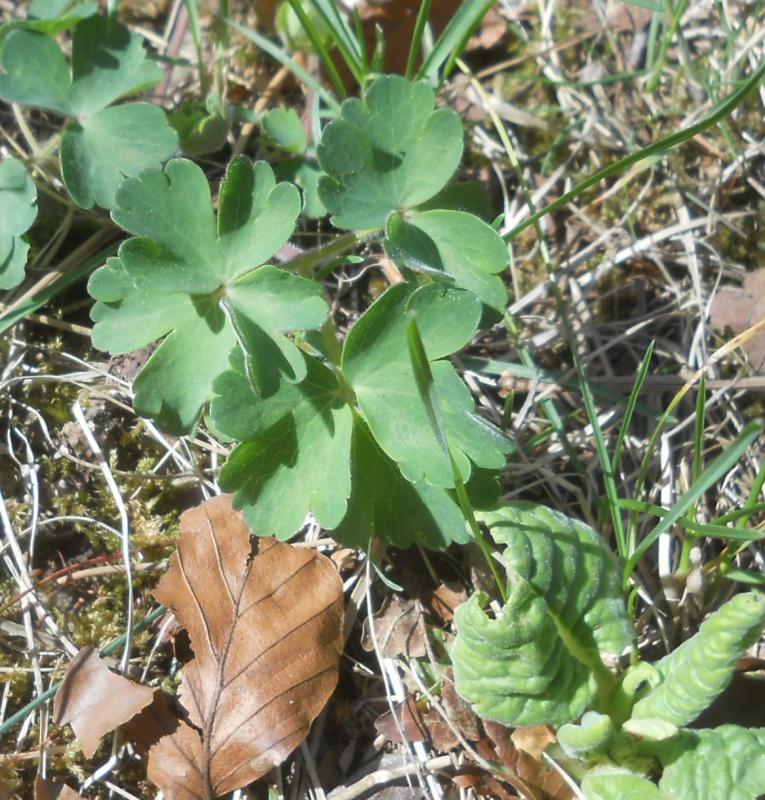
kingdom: Plantae
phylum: Tracheophyta
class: Magnoliopsida
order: Ranunculales
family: Ranunculaceae
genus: Aquilegia
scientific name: Aquilegia vulgaris
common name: Columbine
